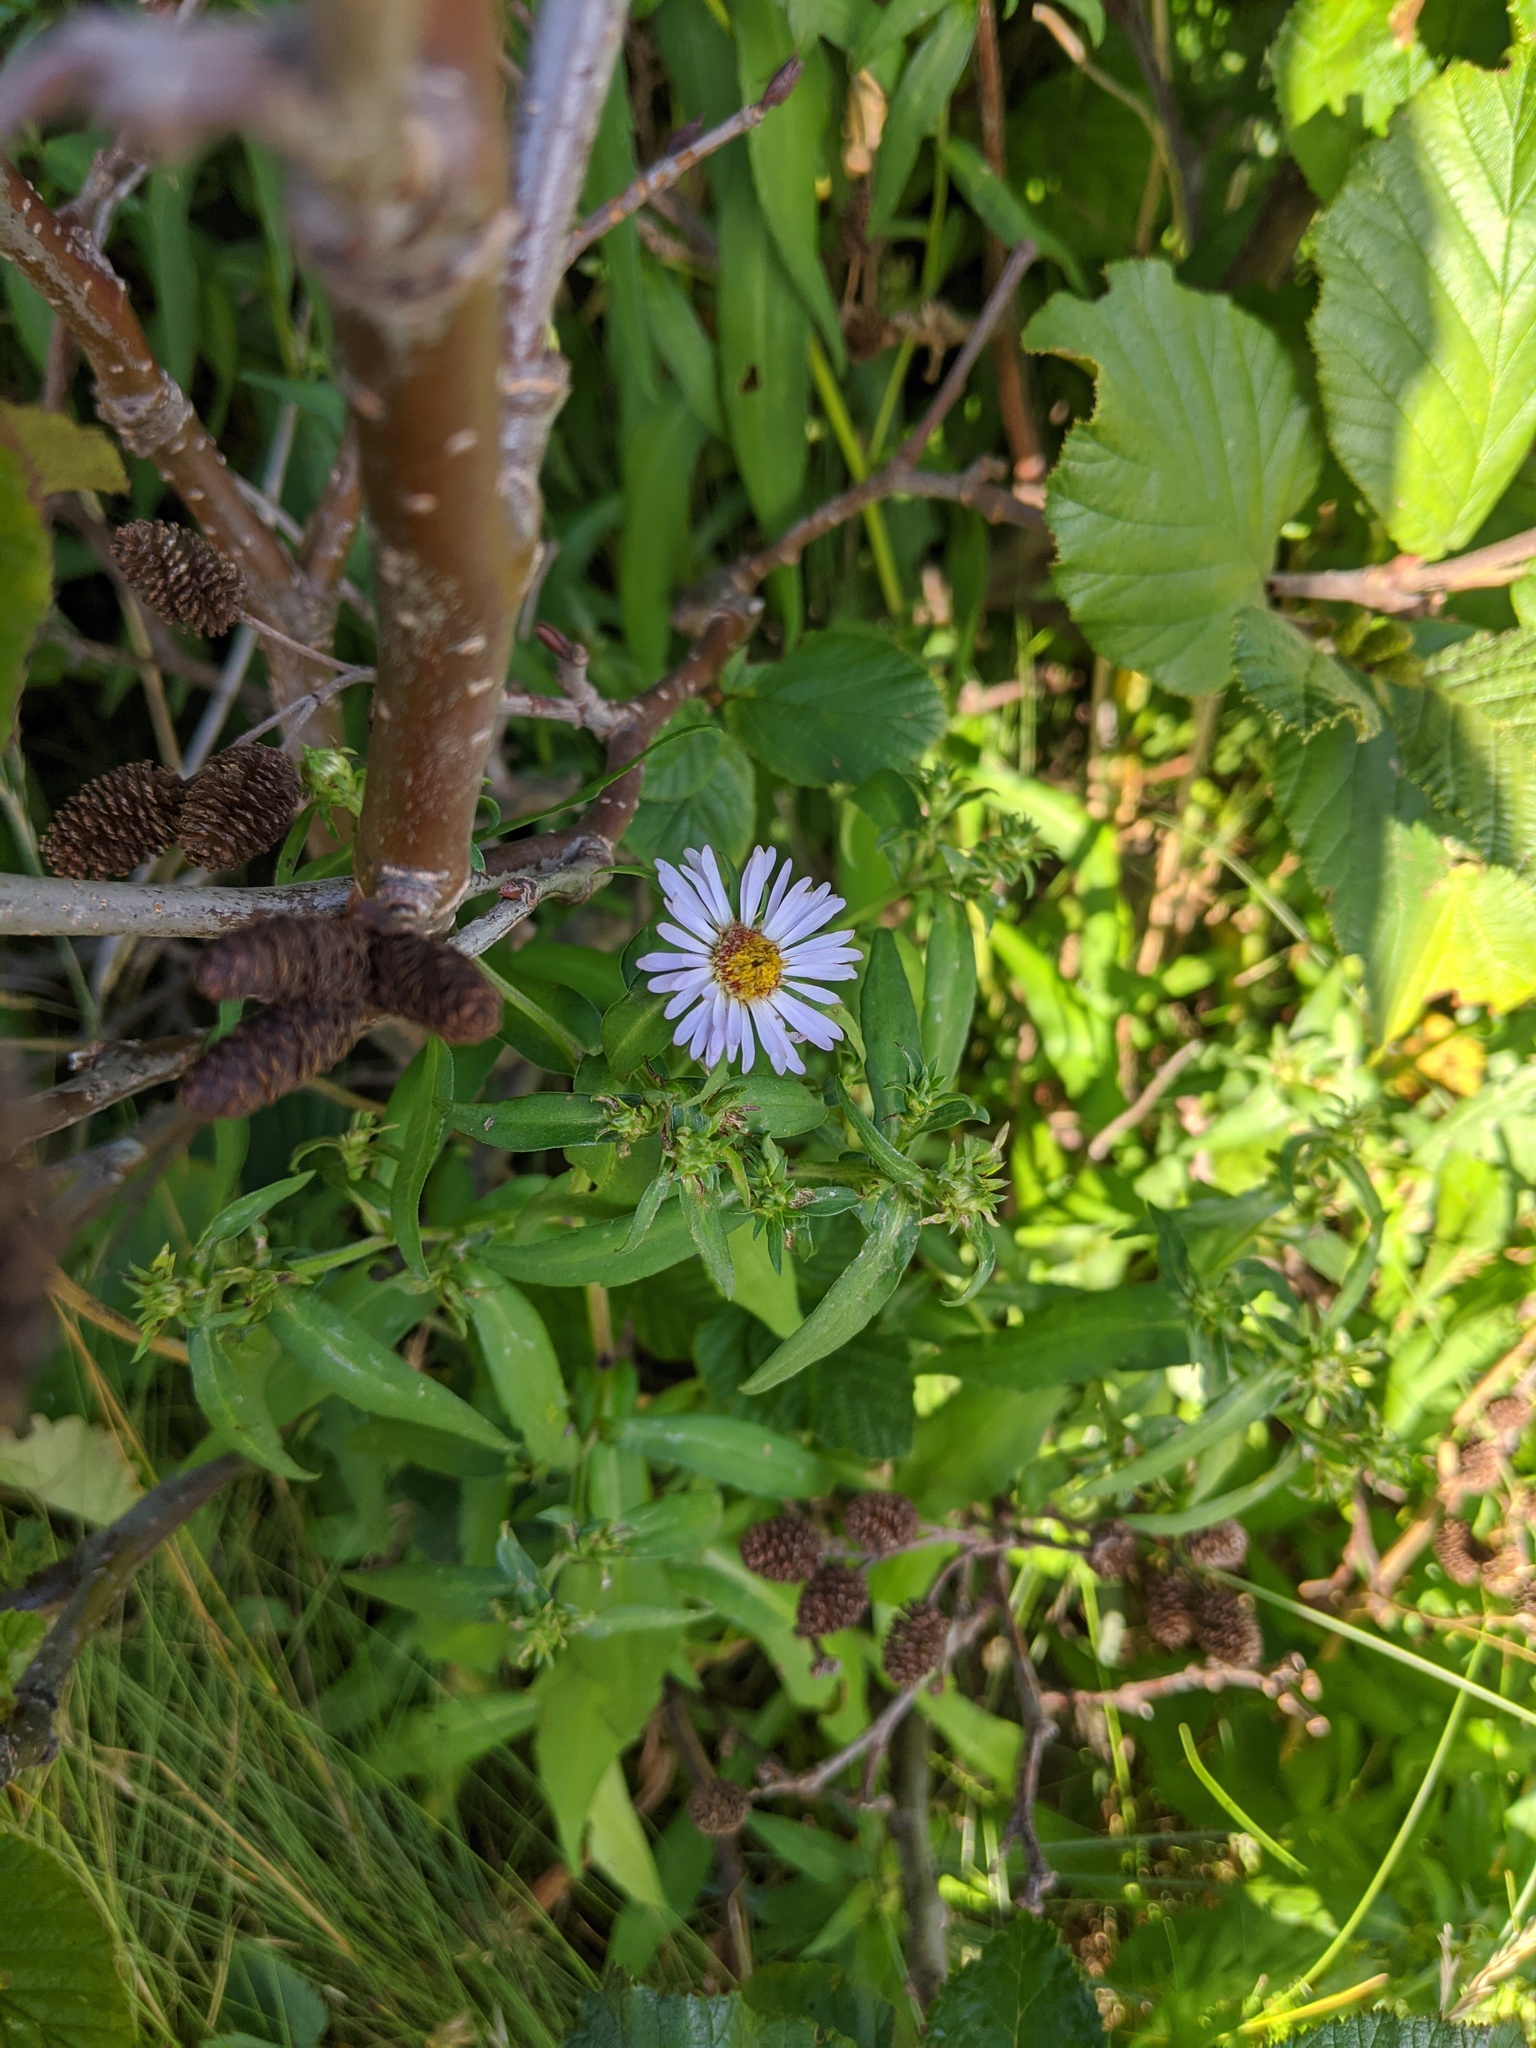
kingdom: Plantae
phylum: Tracheophyta
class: Magnoliopsida
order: Asterales
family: Asteraceae
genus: Symphyotrichum
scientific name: Symphyotrichum novi-belgii
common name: Michaelmas daisy
